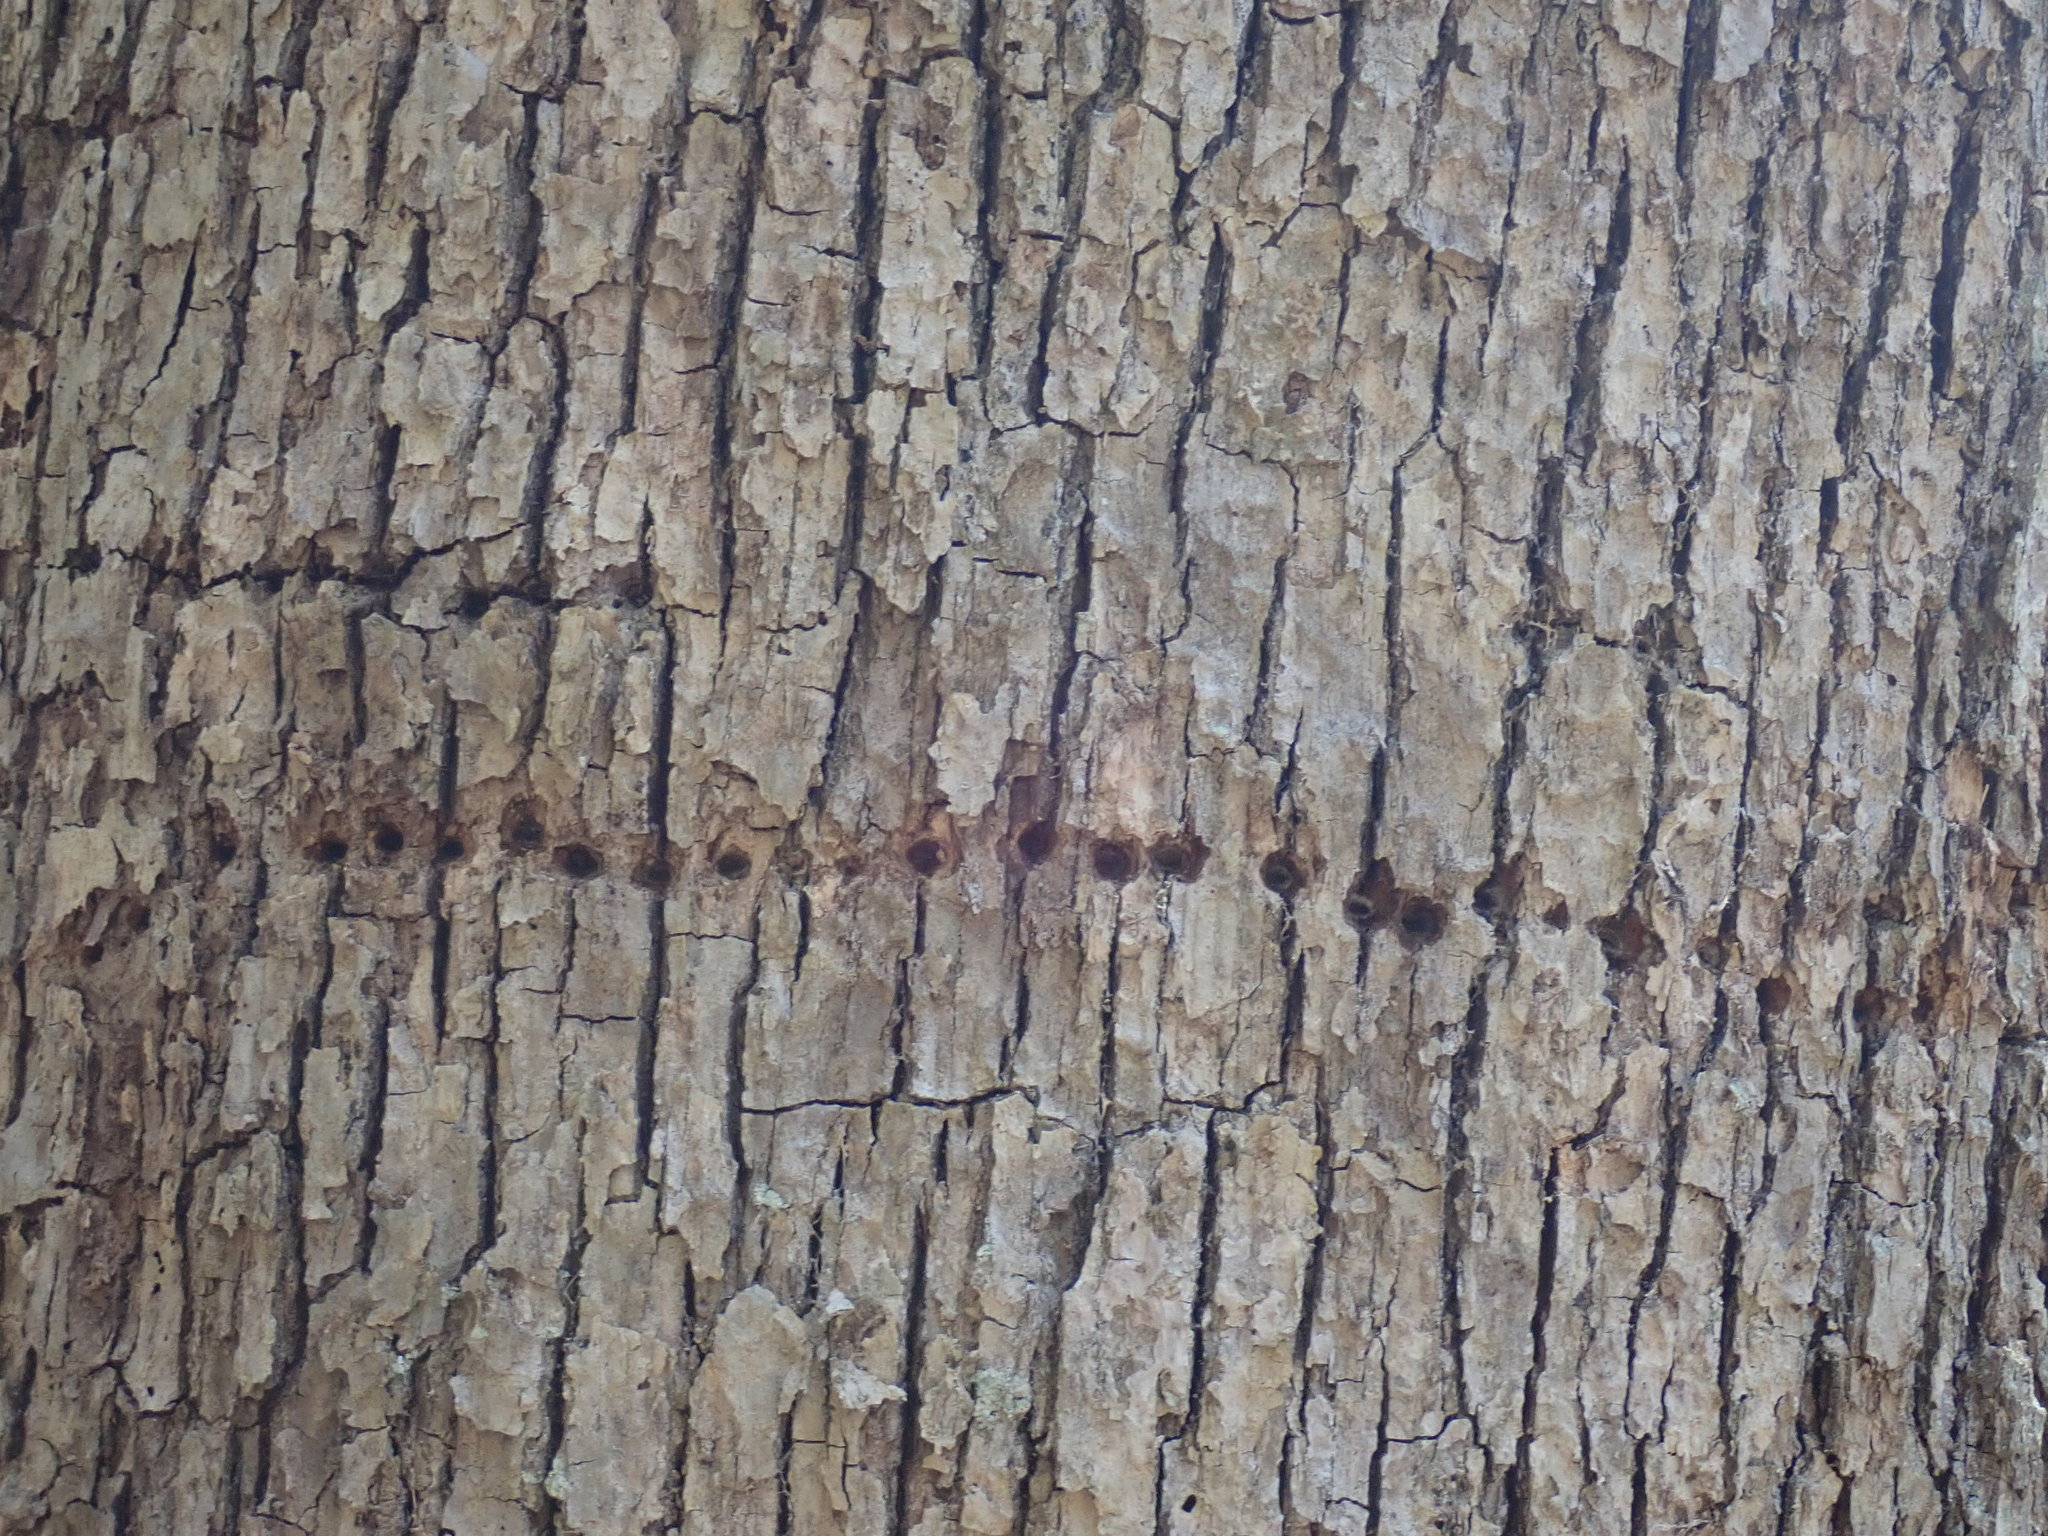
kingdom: Animalia
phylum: Chordata
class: Aves
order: Piciformes
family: Picidae
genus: Sphyrapicus
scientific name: Sphyrapicus varius
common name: Yellow-bellied sapsucker
